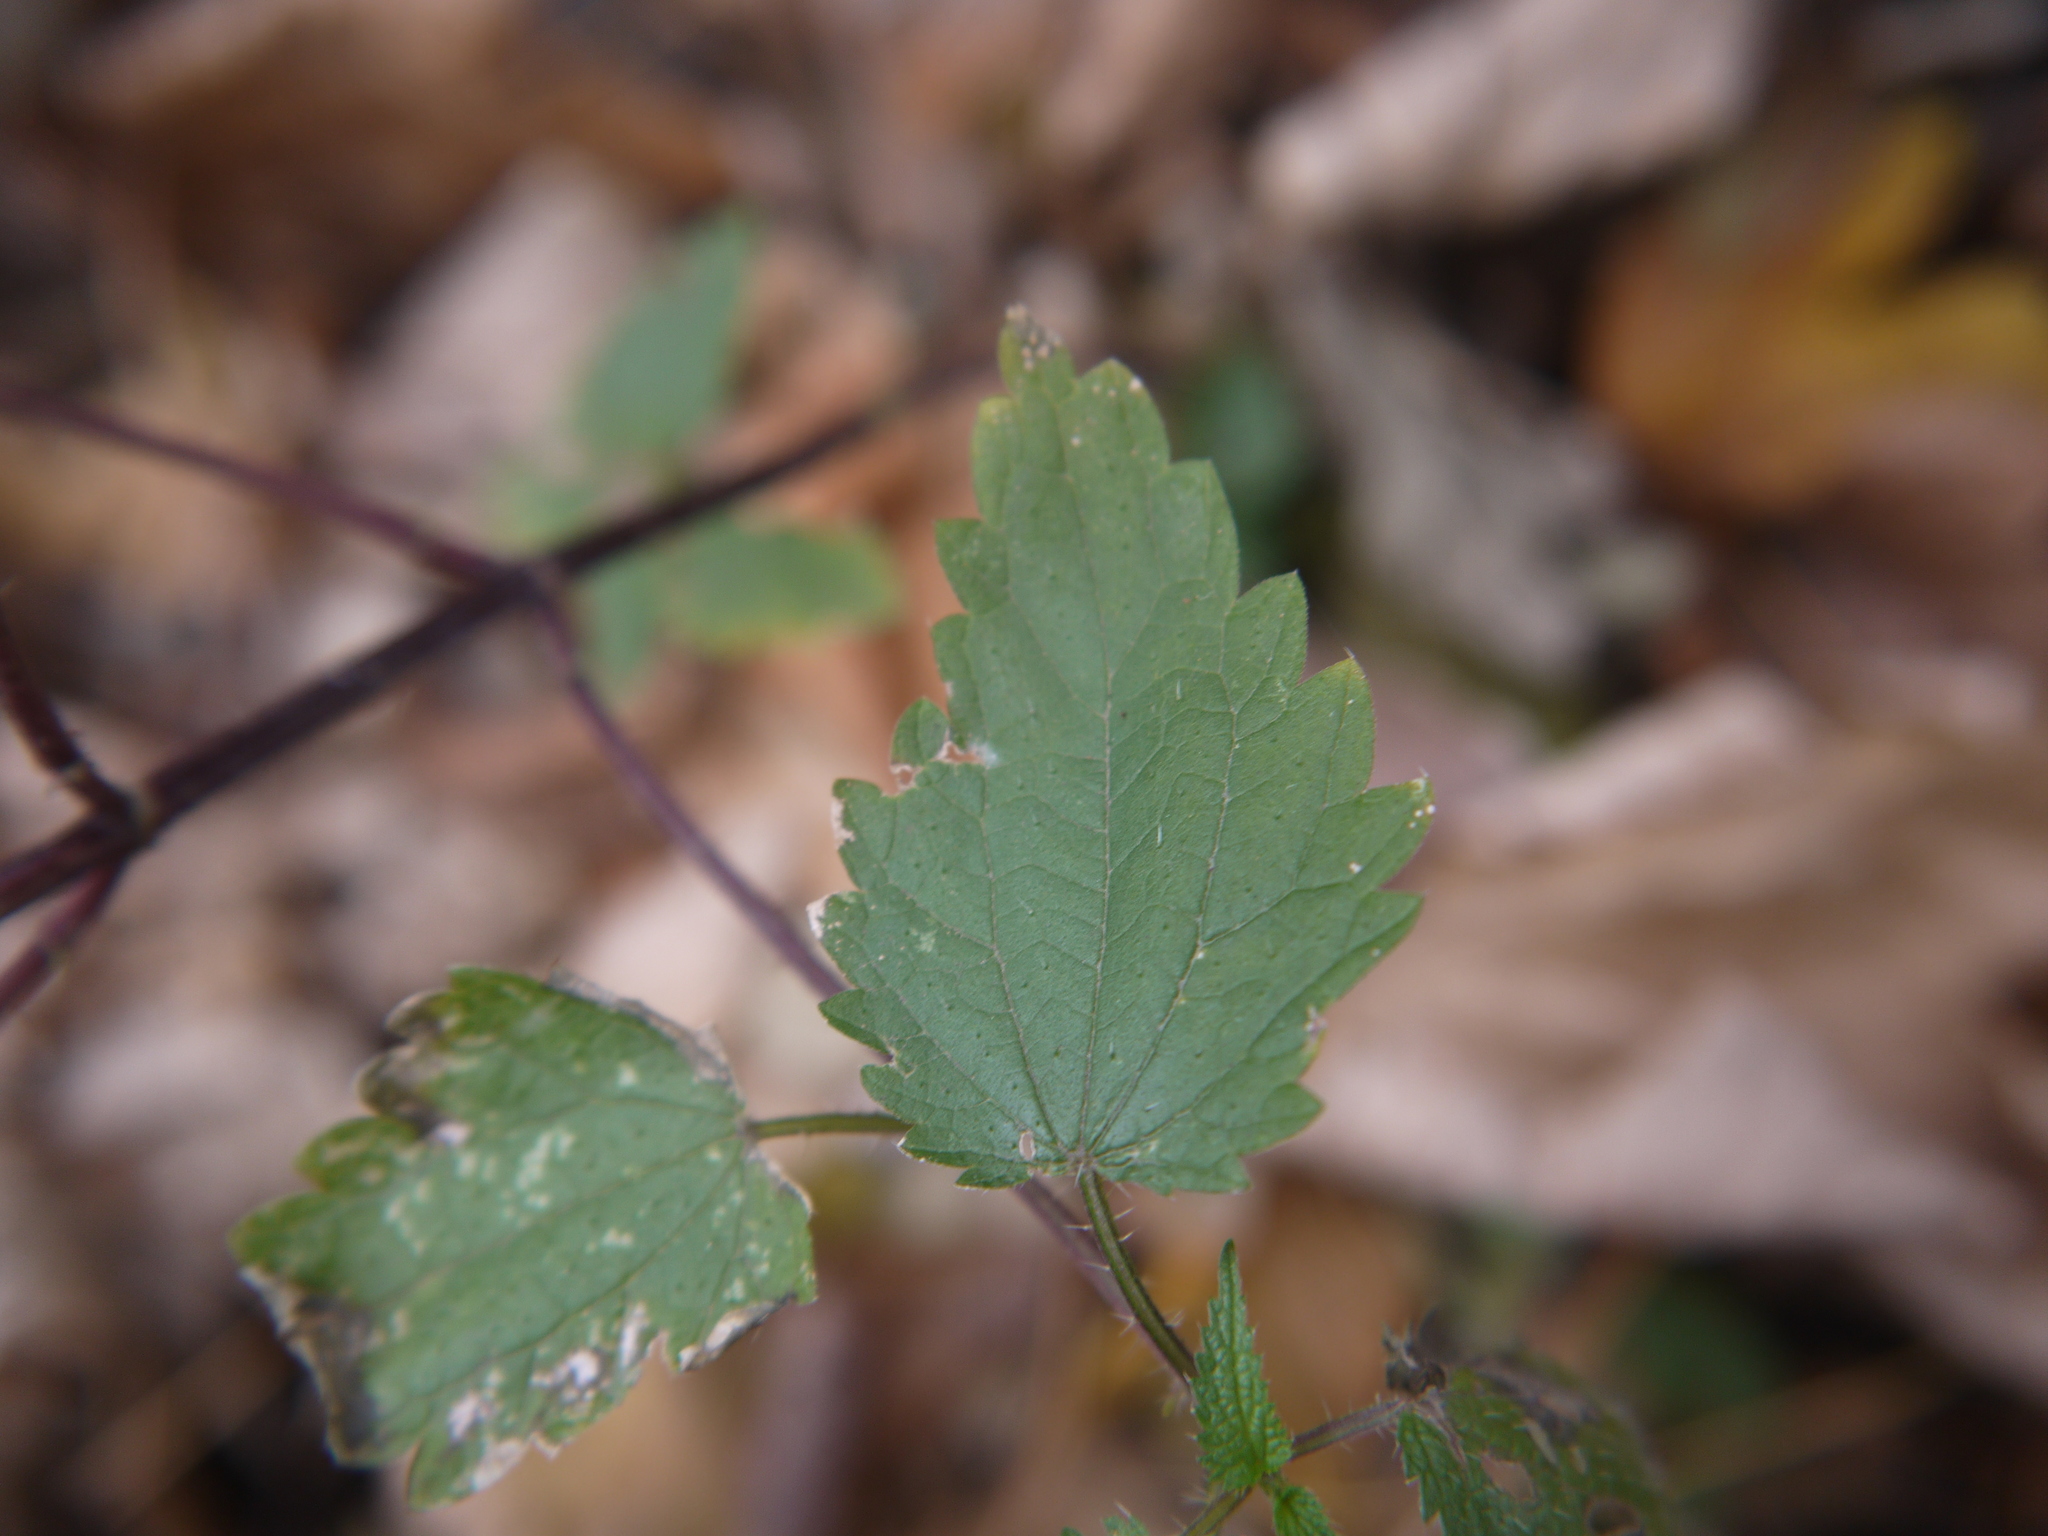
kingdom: Plantae
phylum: Tracheophyta
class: Magnoliopsida
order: Rosales
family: Urticaceae
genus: Urtica
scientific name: Urtica dioica
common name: Common nettle
